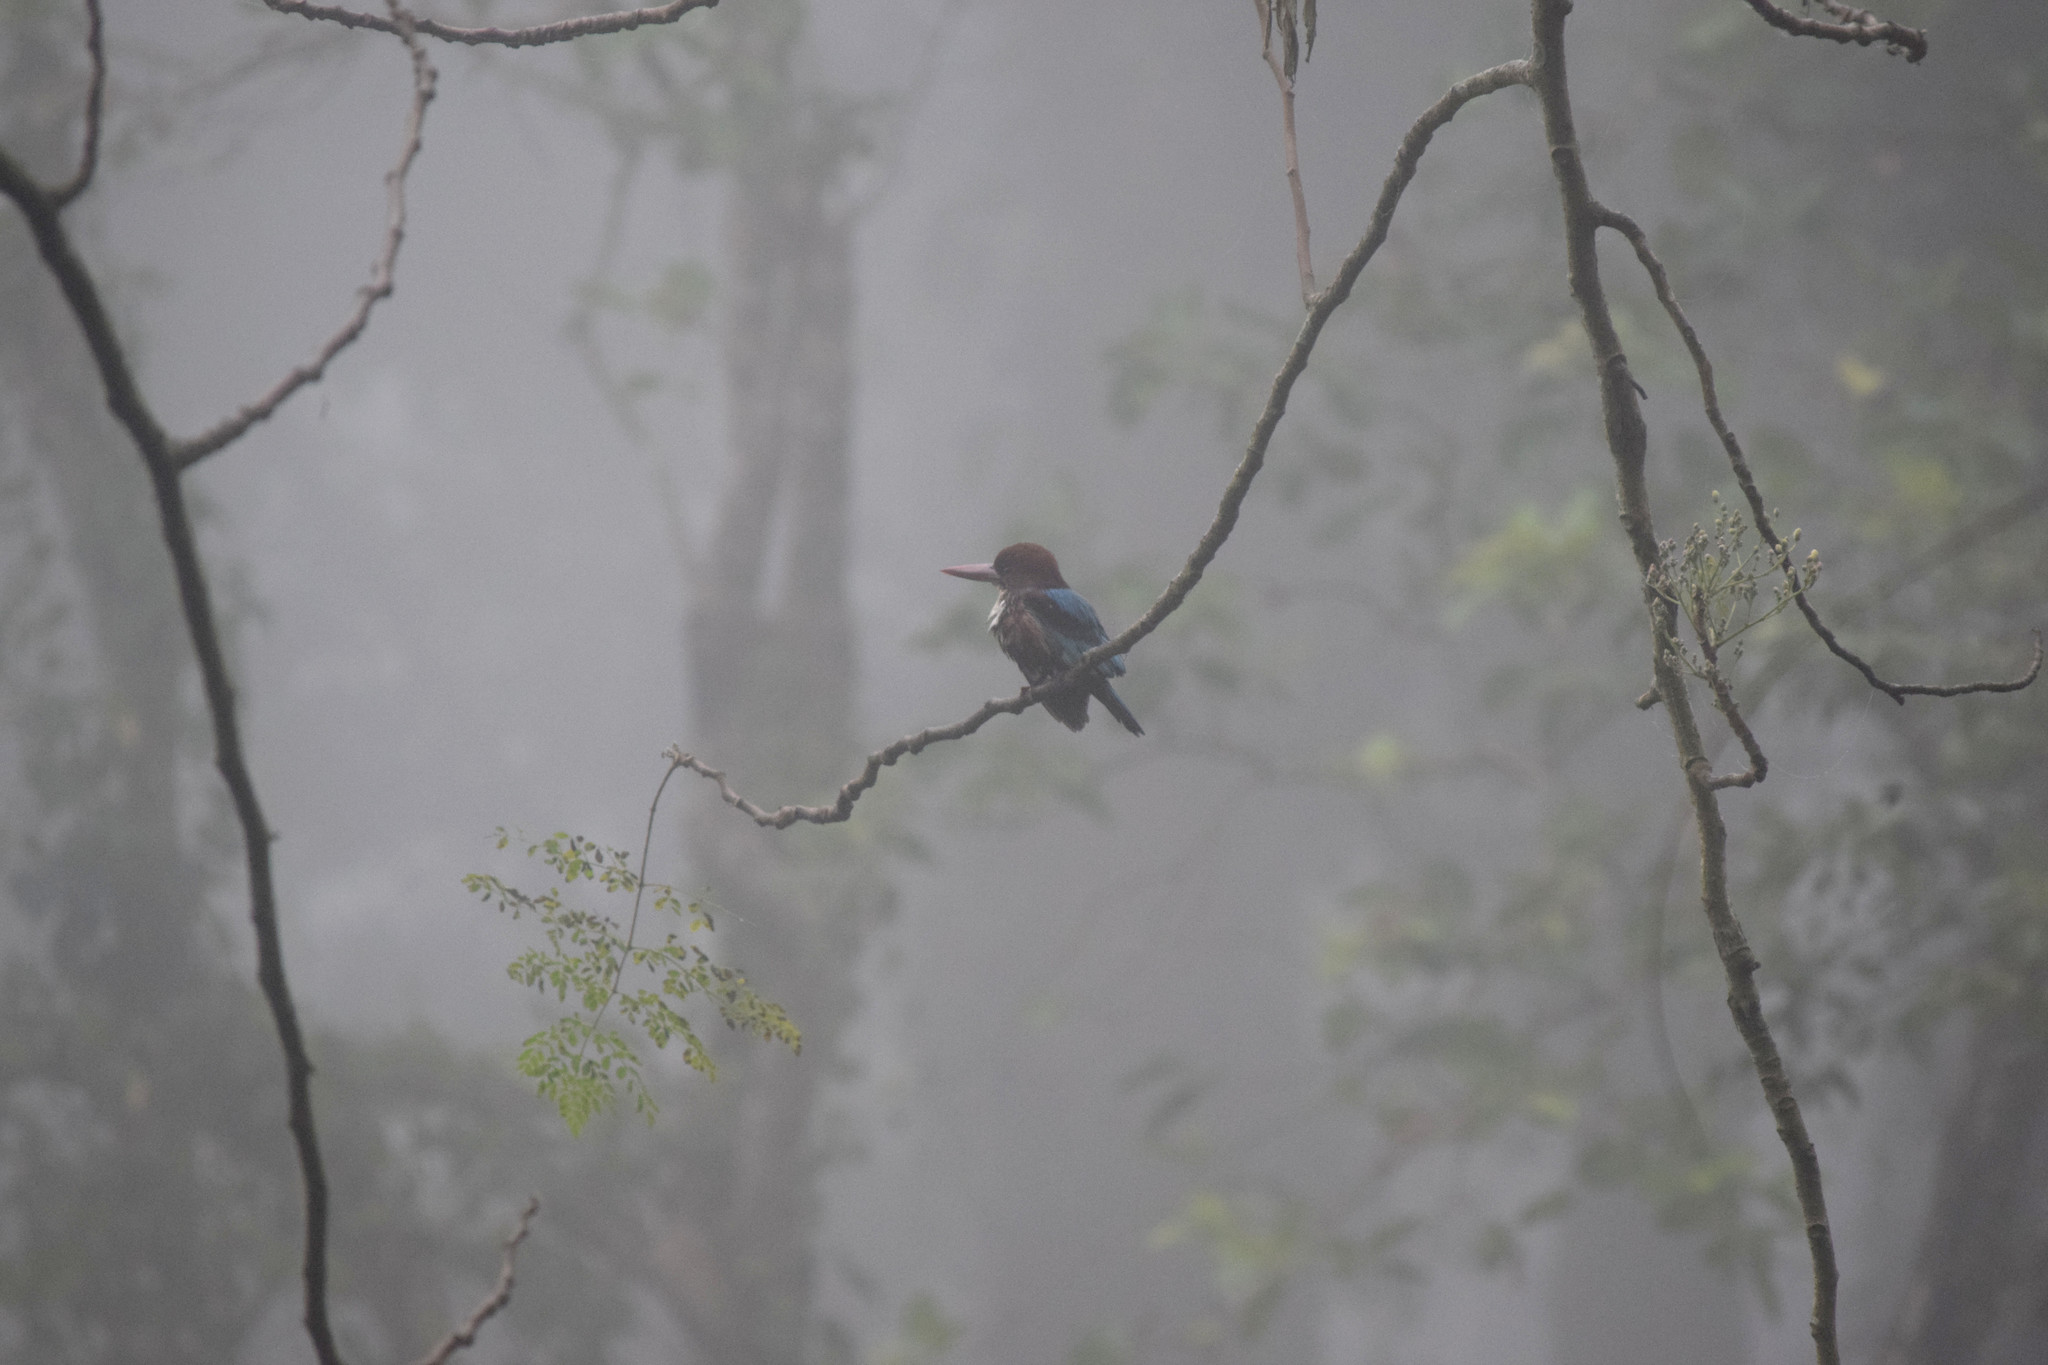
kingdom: Animalia
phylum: Chordata
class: Aves
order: Coraciiformes
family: Alcedinidae
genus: Halcyon
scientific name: Halcyon smyrnensis
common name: White-throated kingfisher
